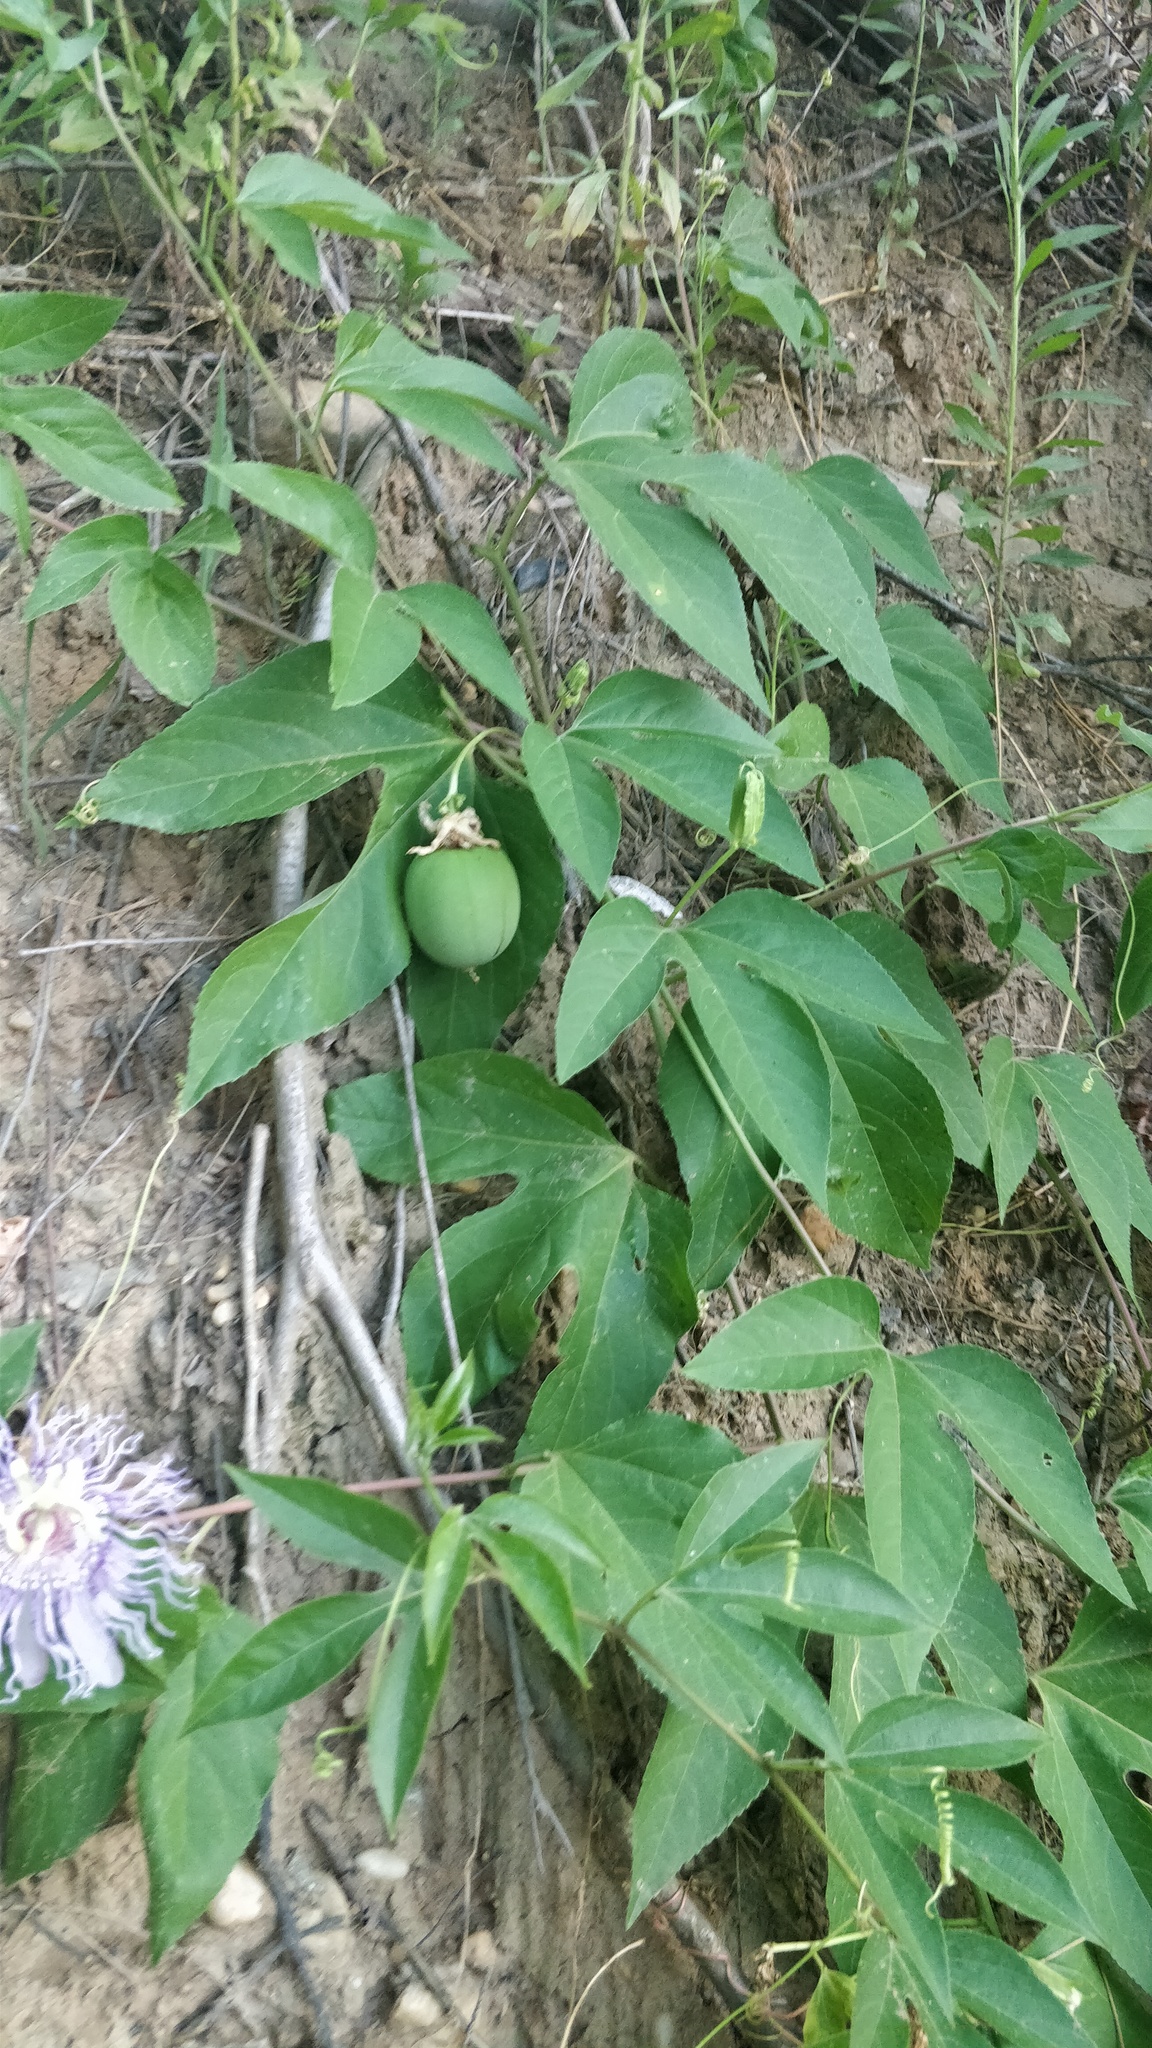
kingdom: Plantae
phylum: Tracheophyta
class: Magnoliopsida
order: Malpighiales
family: Passifloraceae
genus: Passiflora
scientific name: Passiflora incarnata
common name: Apricot-vine
